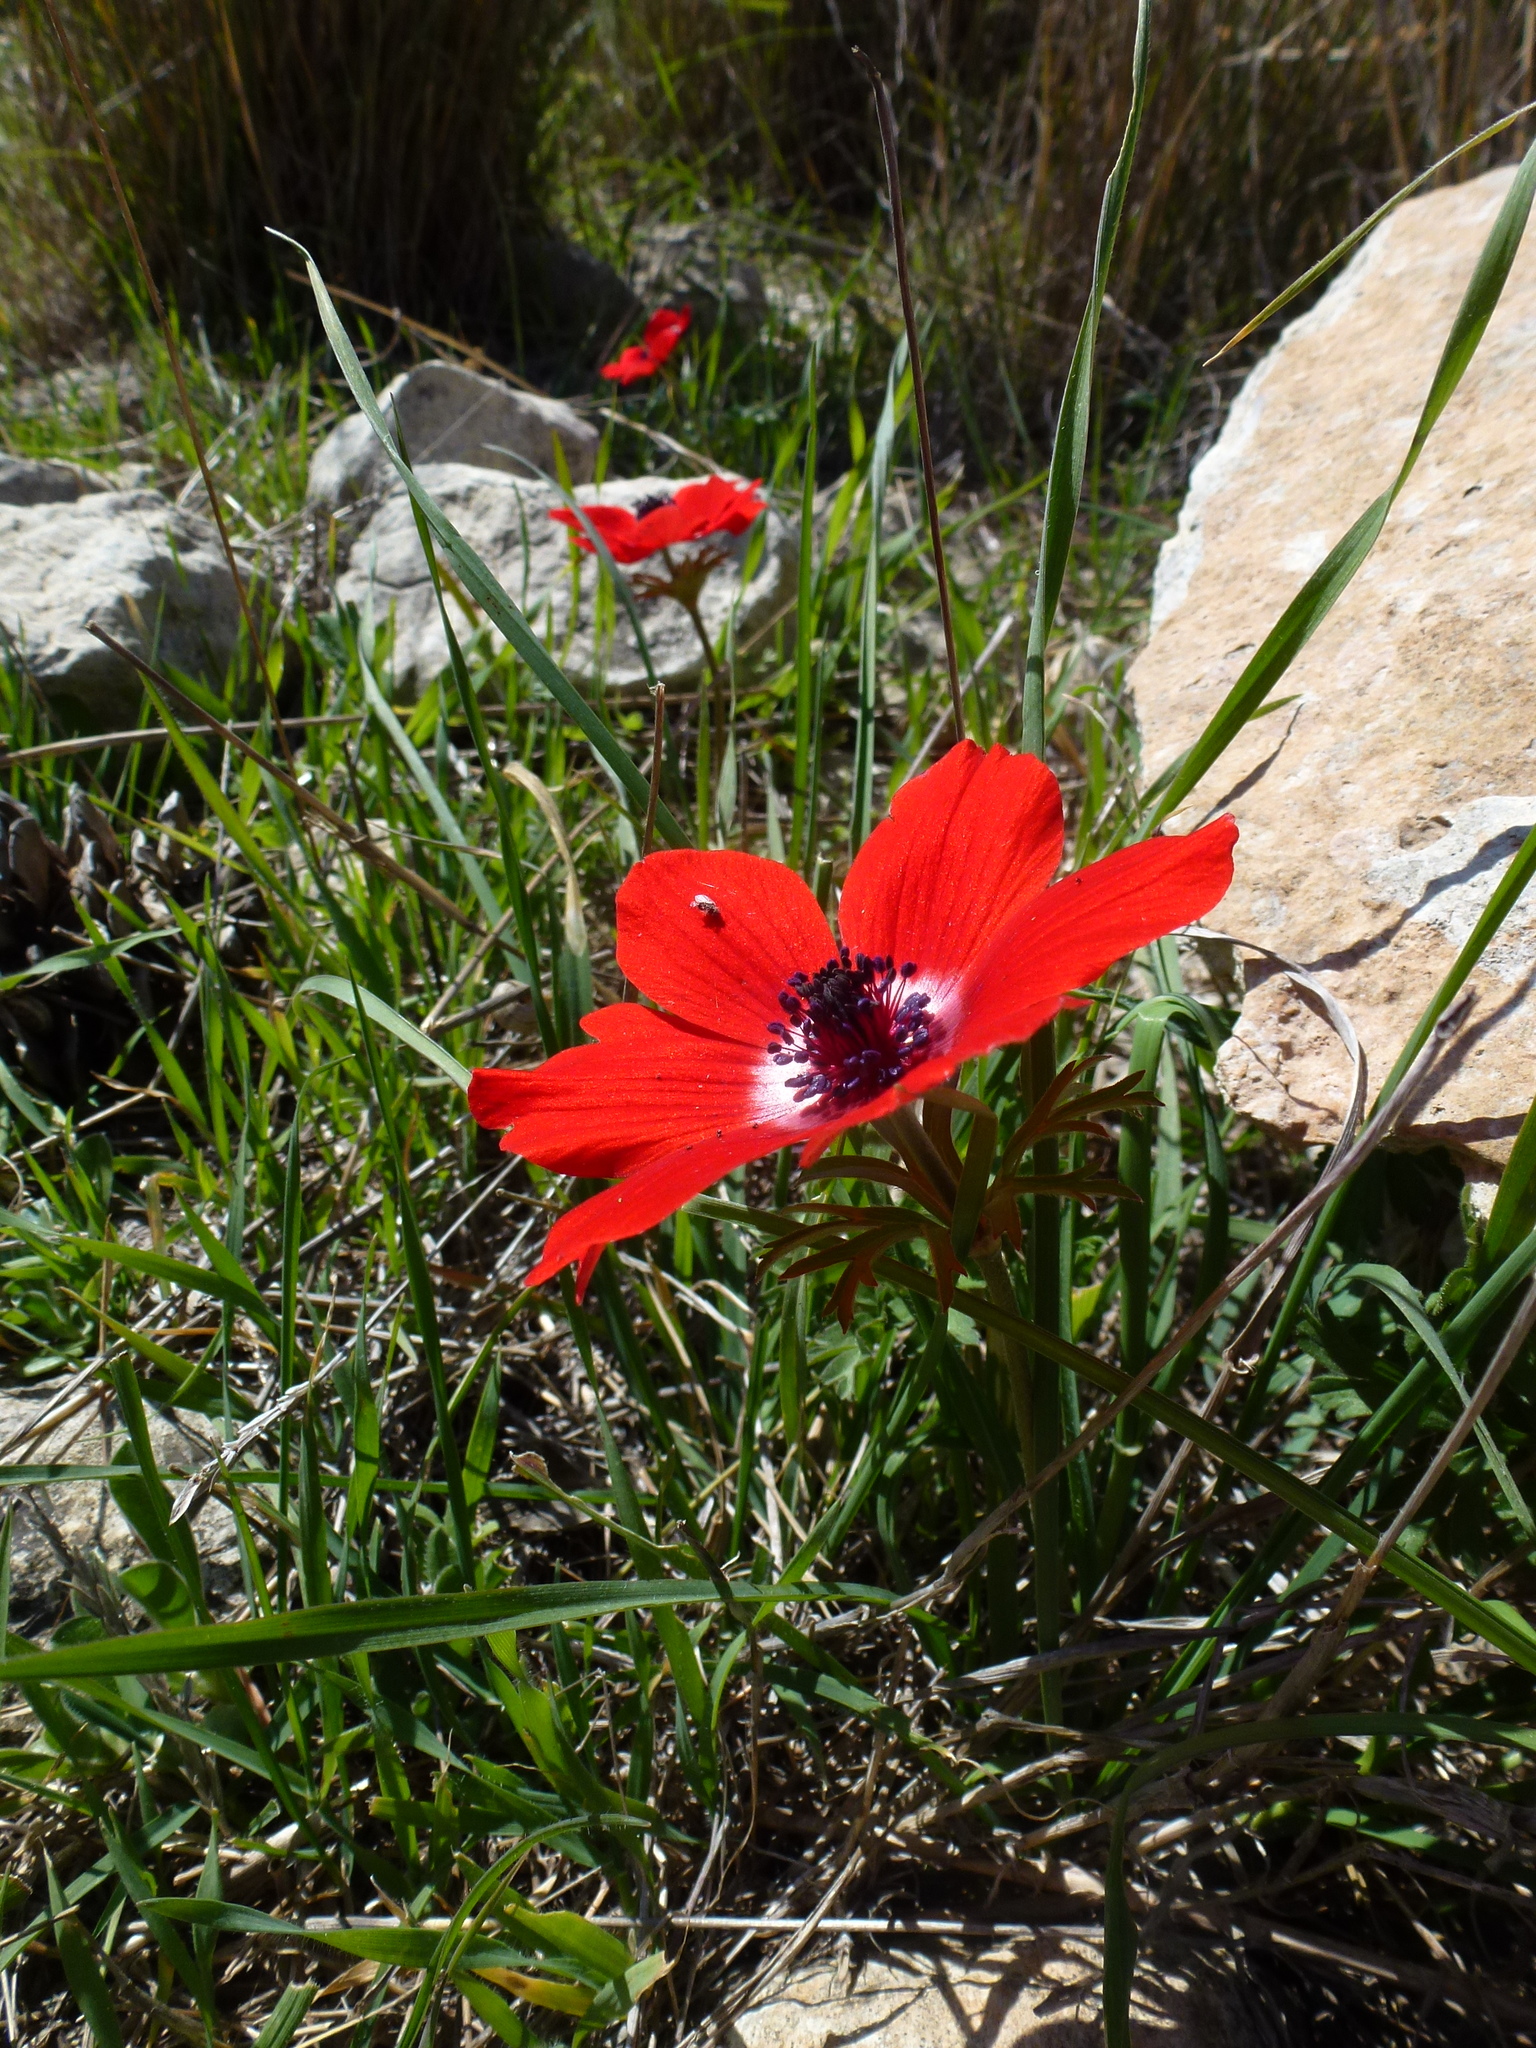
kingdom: Plantae
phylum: Tracheophyta
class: Magnoliopsida
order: Ranunculales
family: Ranunculaceae
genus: Anemone
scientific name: Anemone coronaria
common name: Poppy anemone
